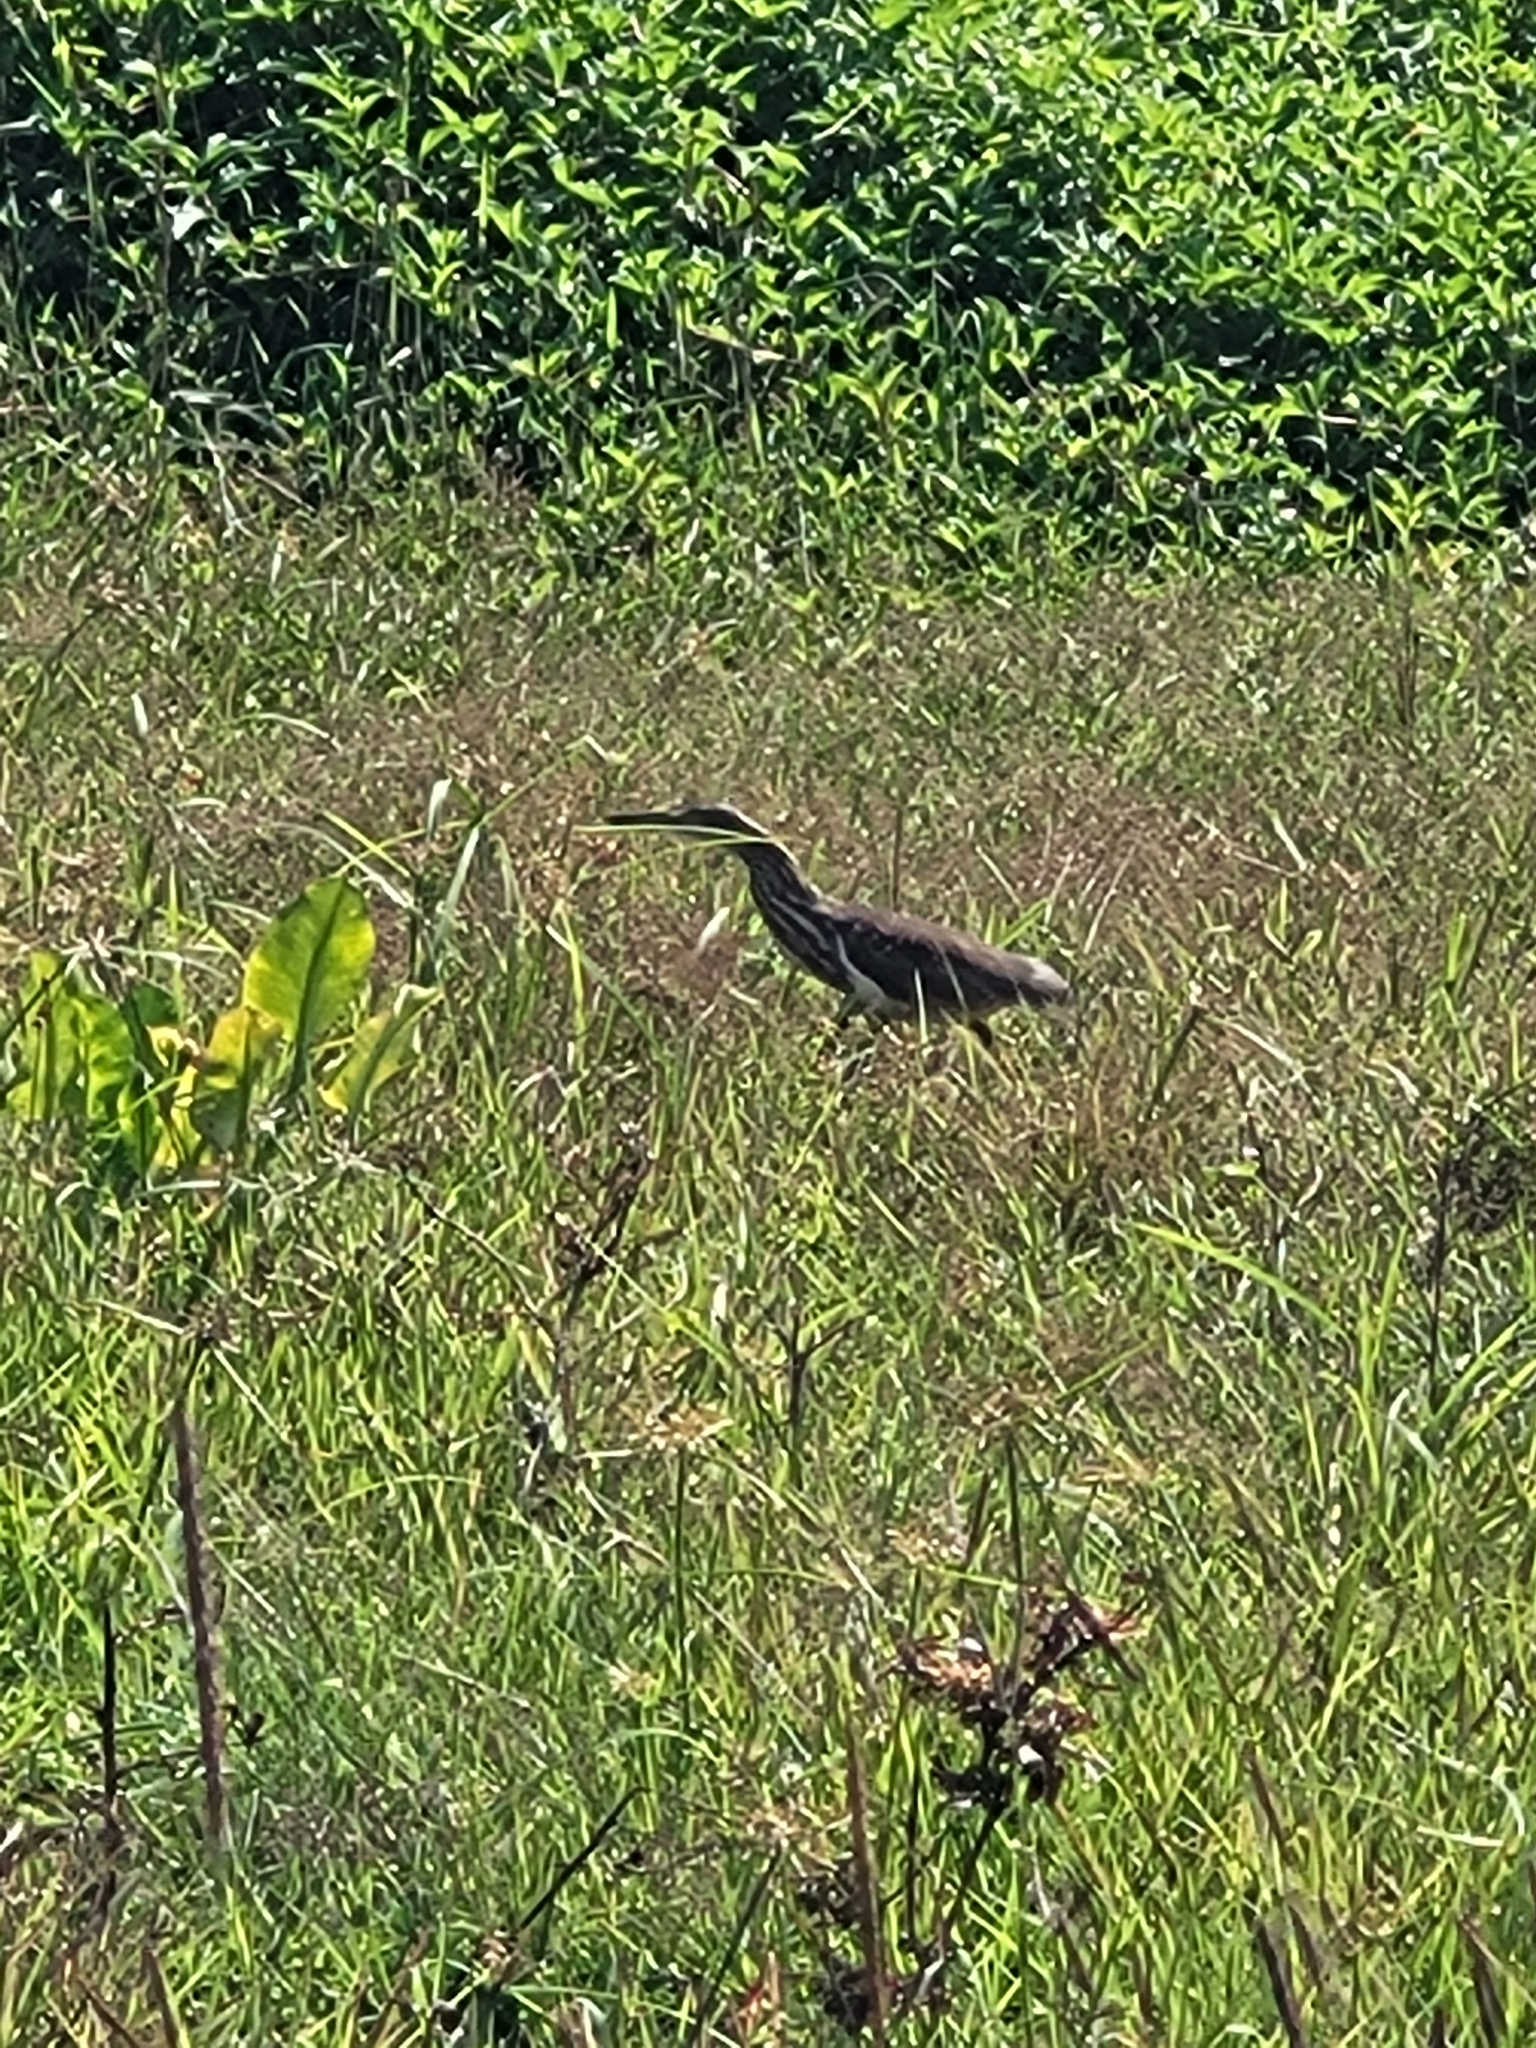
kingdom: Animalia
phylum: Chordata
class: Aves
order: Pelecaniformes
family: Ardeidae
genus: Ardeola
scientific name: Ardeola grayii
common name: Indian pond heron
